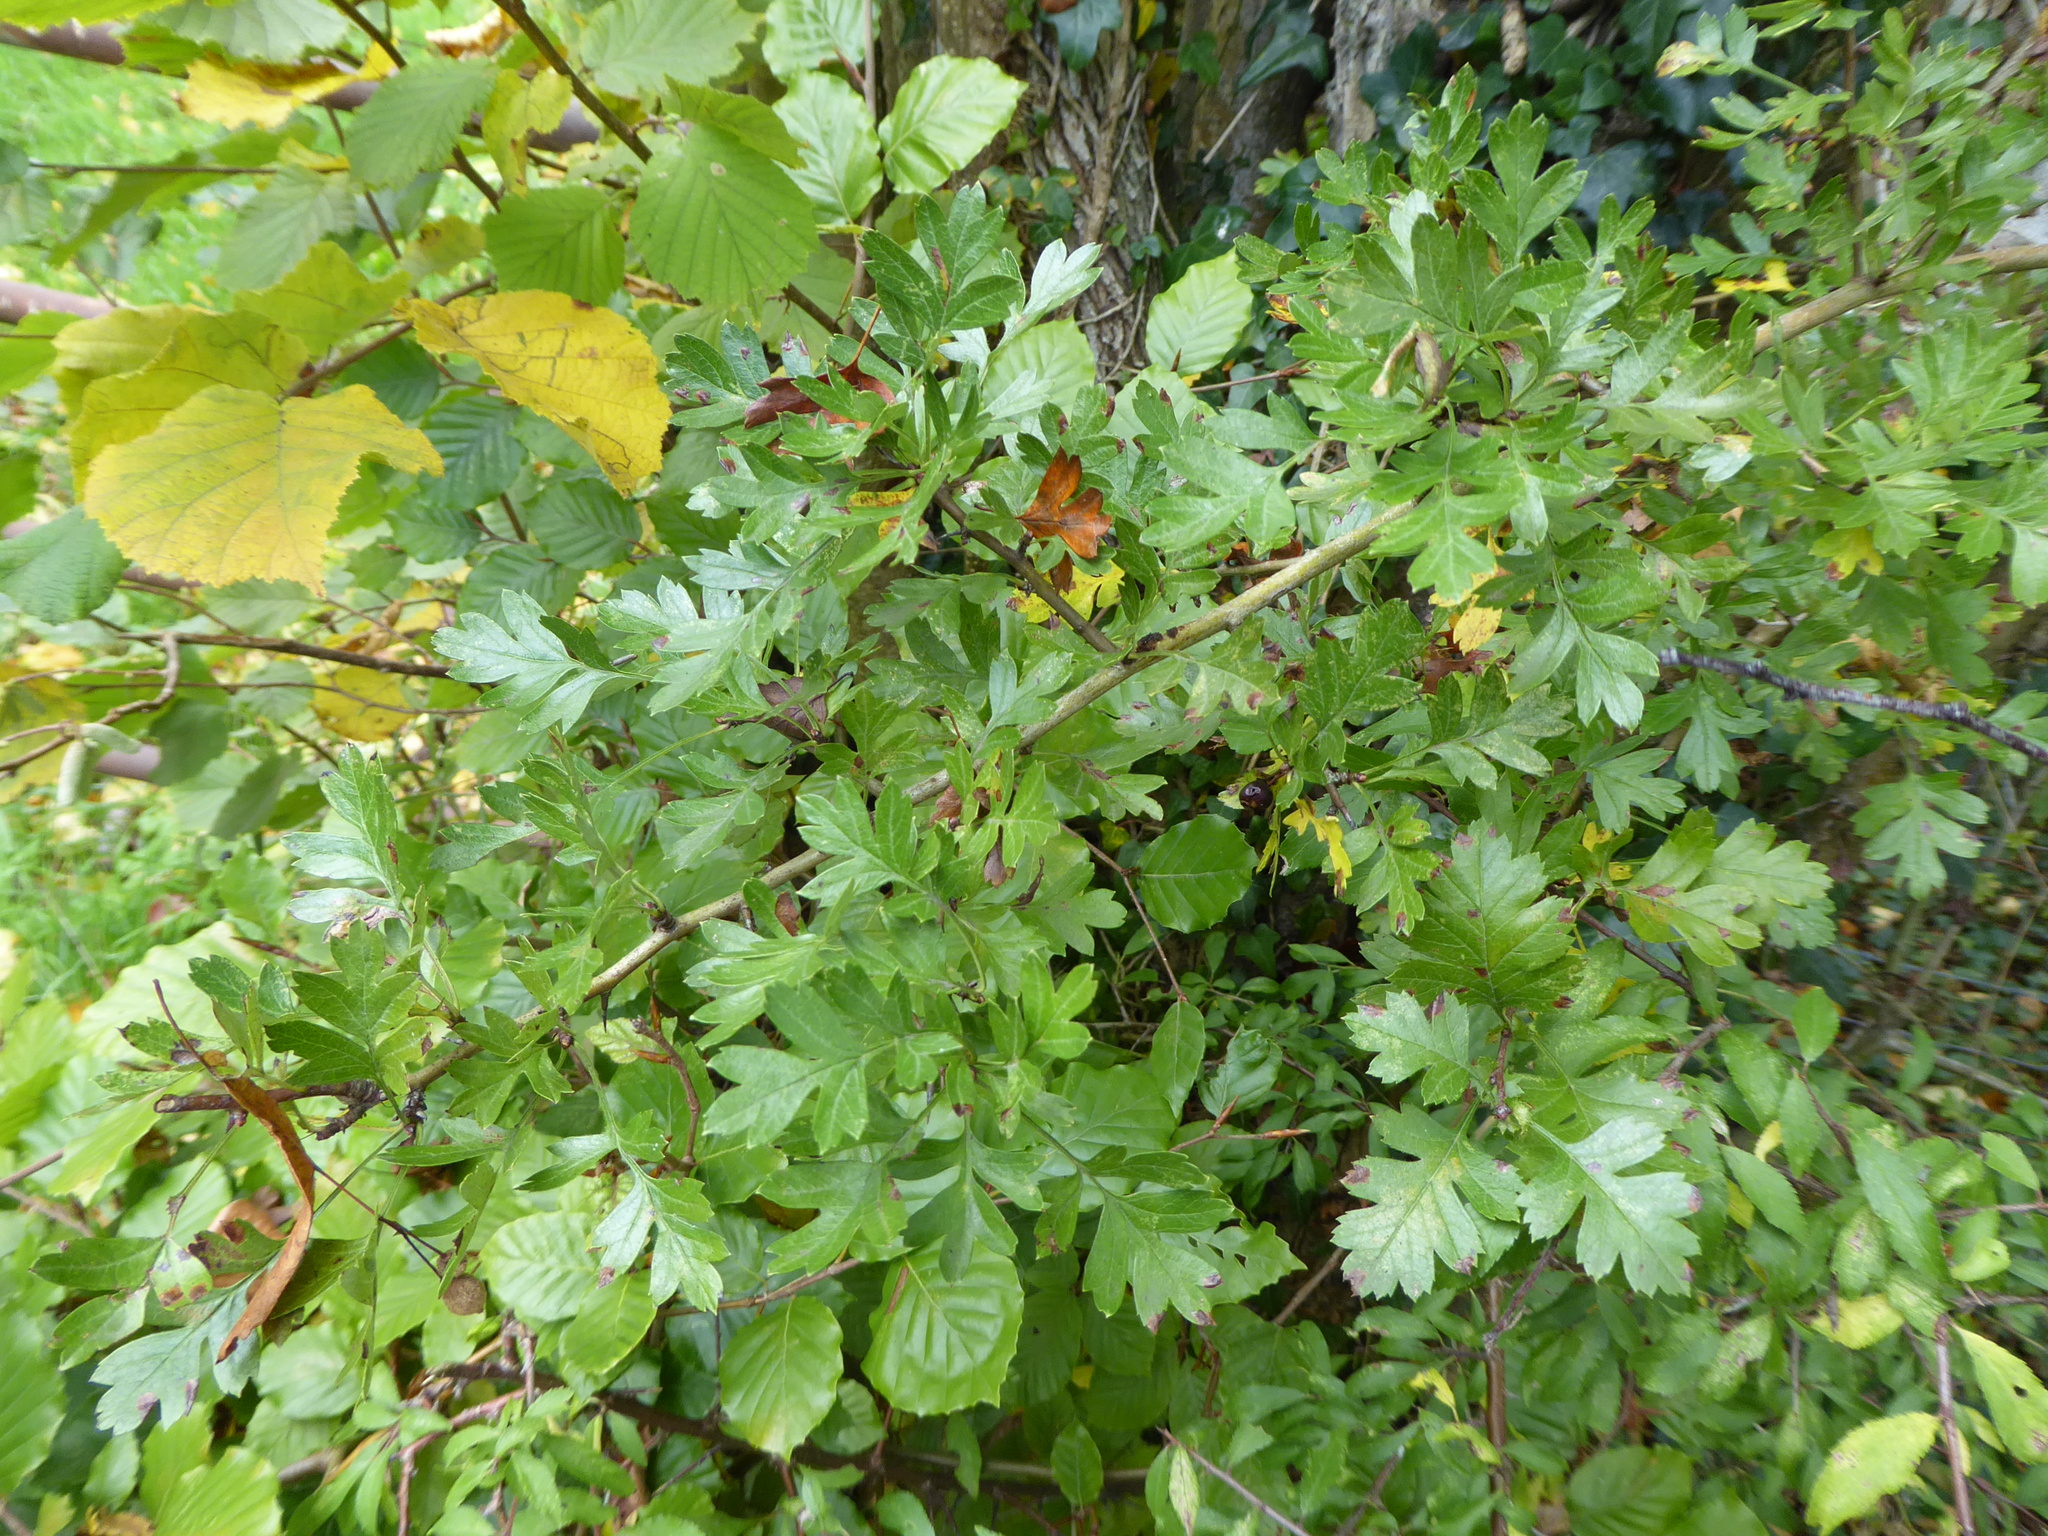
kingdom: Plantae
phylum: Tracheophyta
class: Magnoliopsida
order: Rosales
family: Rosaceae
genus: Crataegus
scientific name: Crataegus monogyna
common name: Hawthorn
